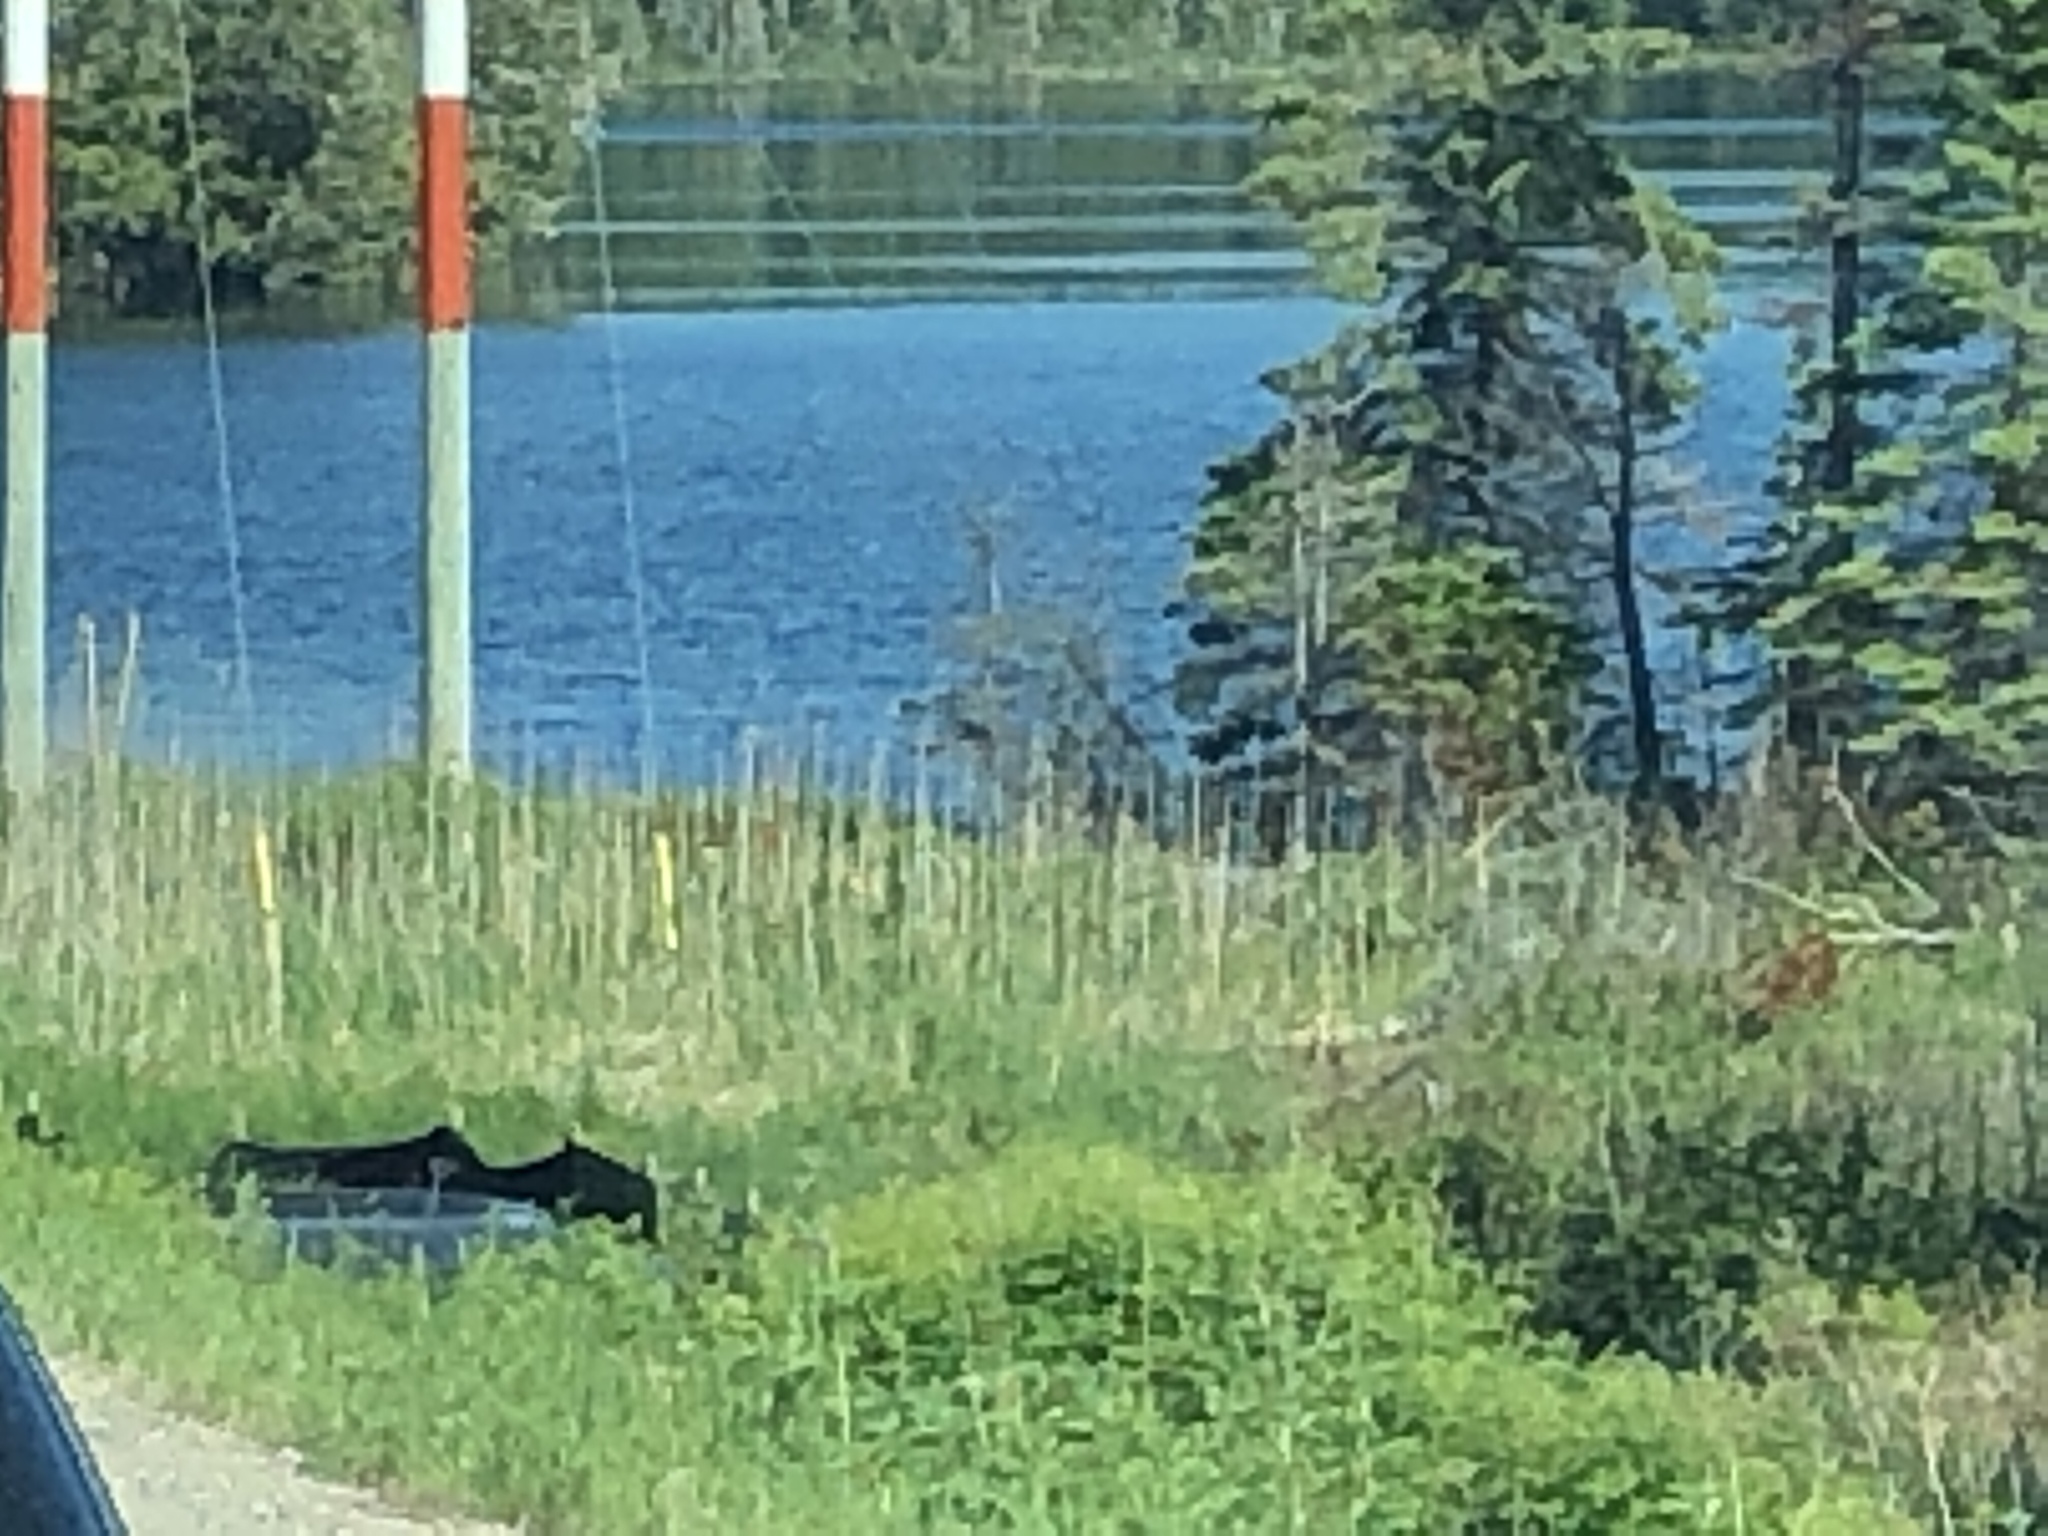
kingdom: Plantae
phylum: Tracheophyta
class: Liliopsida
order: Poales
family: Poaceae
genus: Phragmites
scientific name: Phragmites australis
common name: Common reed
